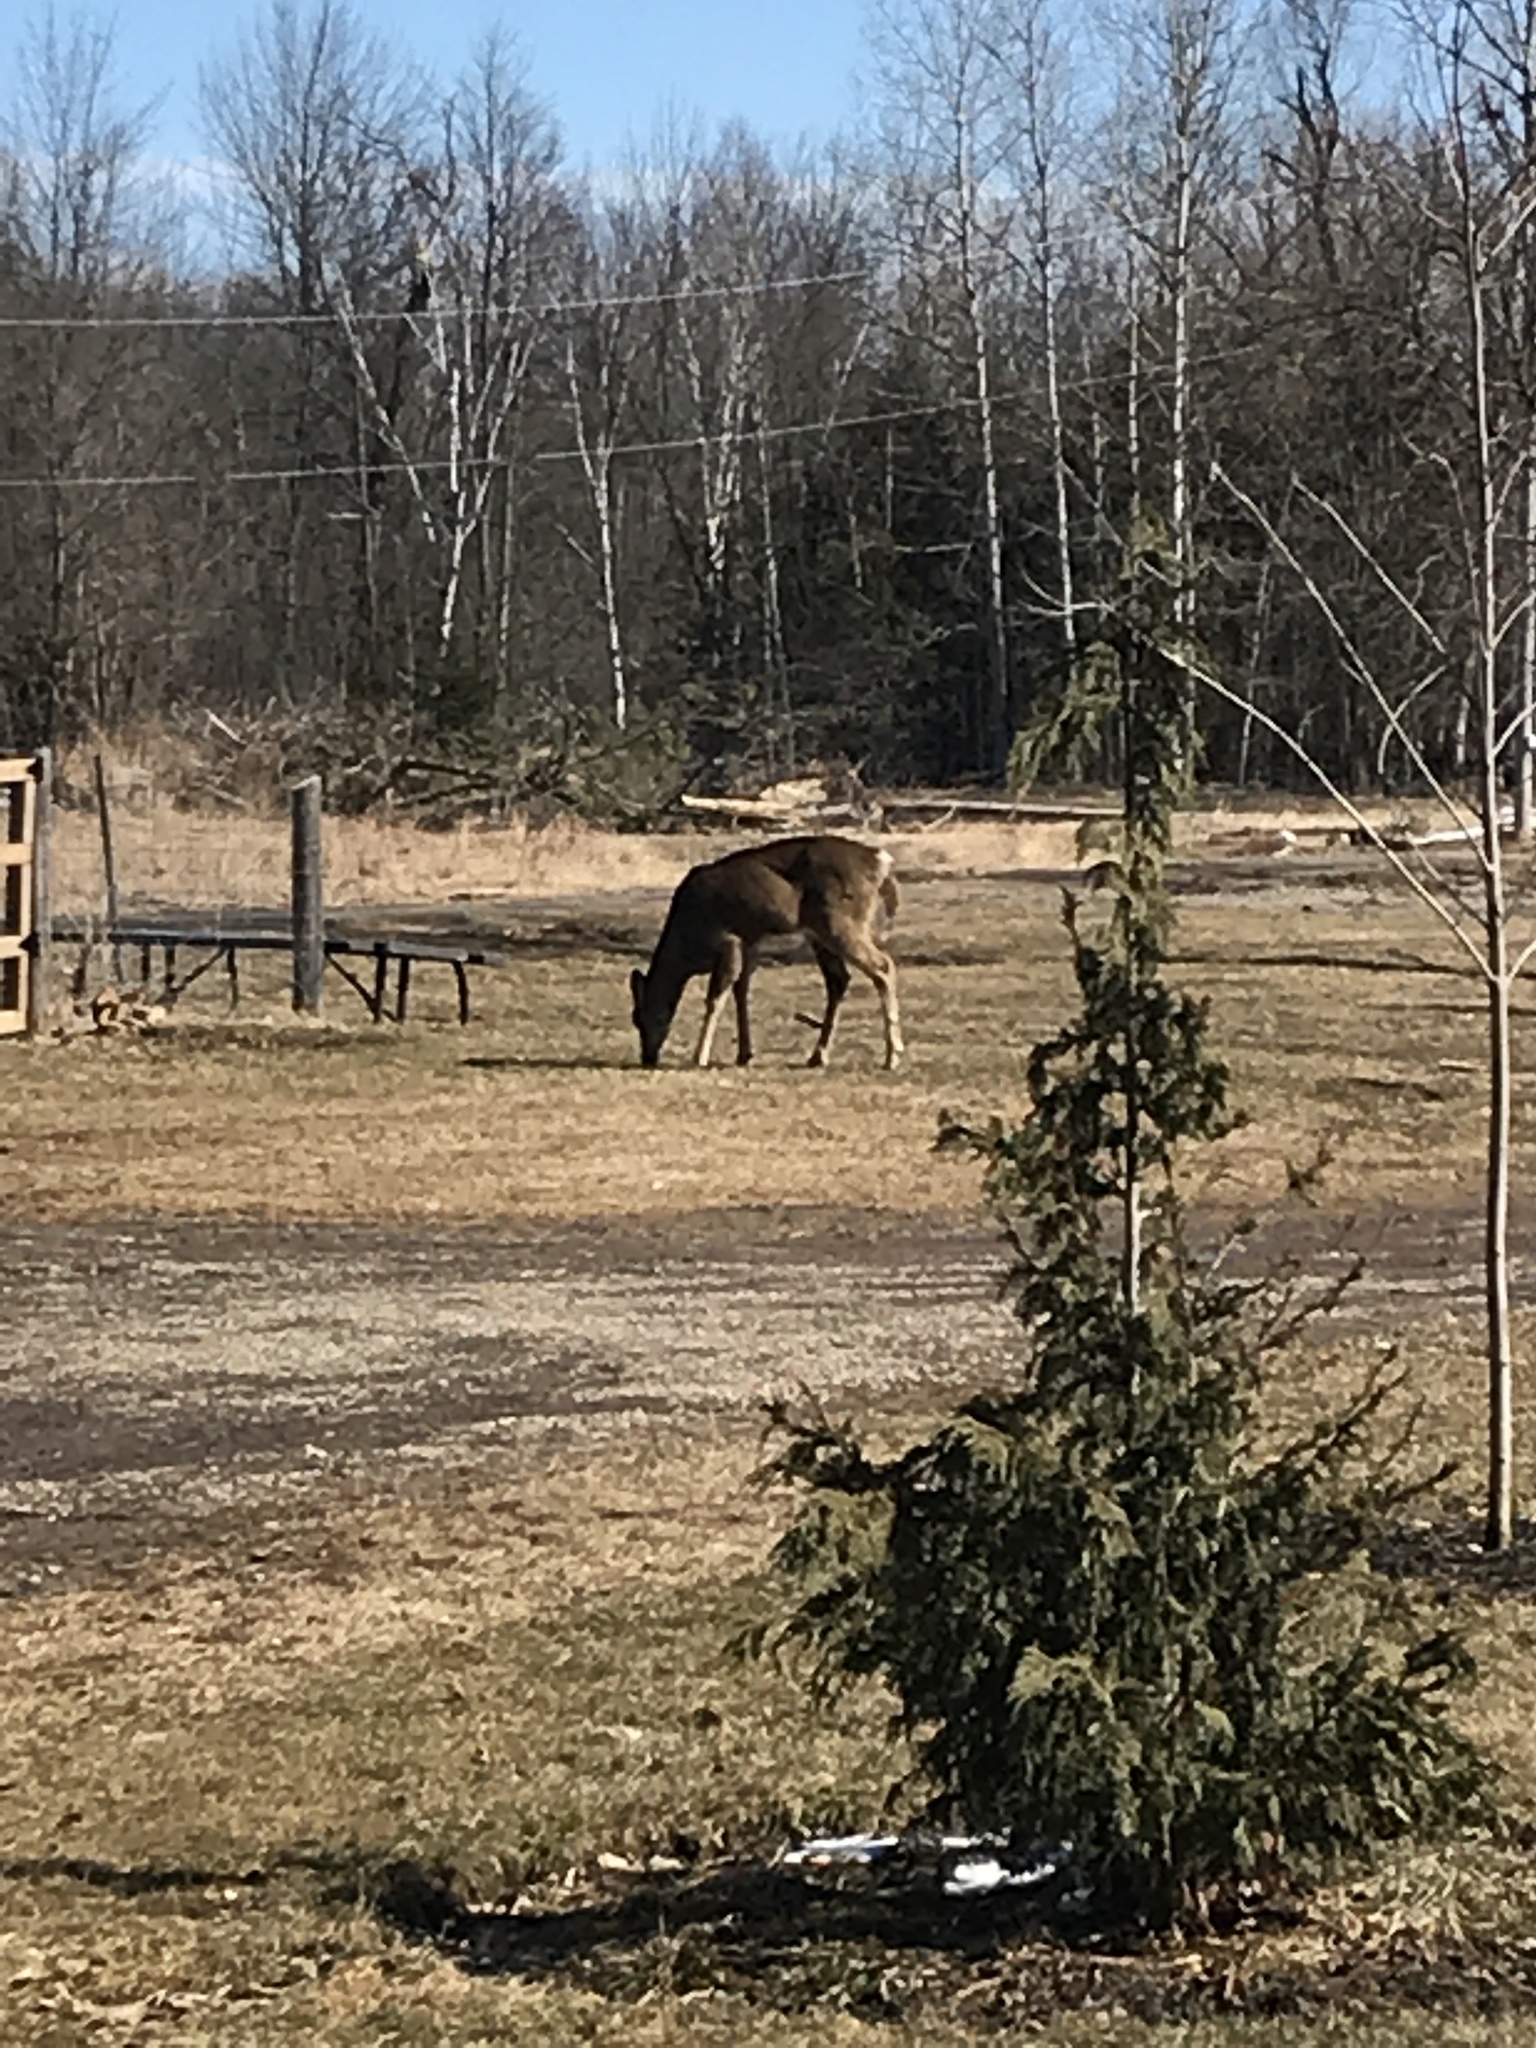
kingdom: Animalia
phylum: Chordata
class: Mammalia
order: Artiodactyla
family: Cervidae
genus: Odocoileus
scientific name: Odocoileus virginianus
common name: White-tailed deer
